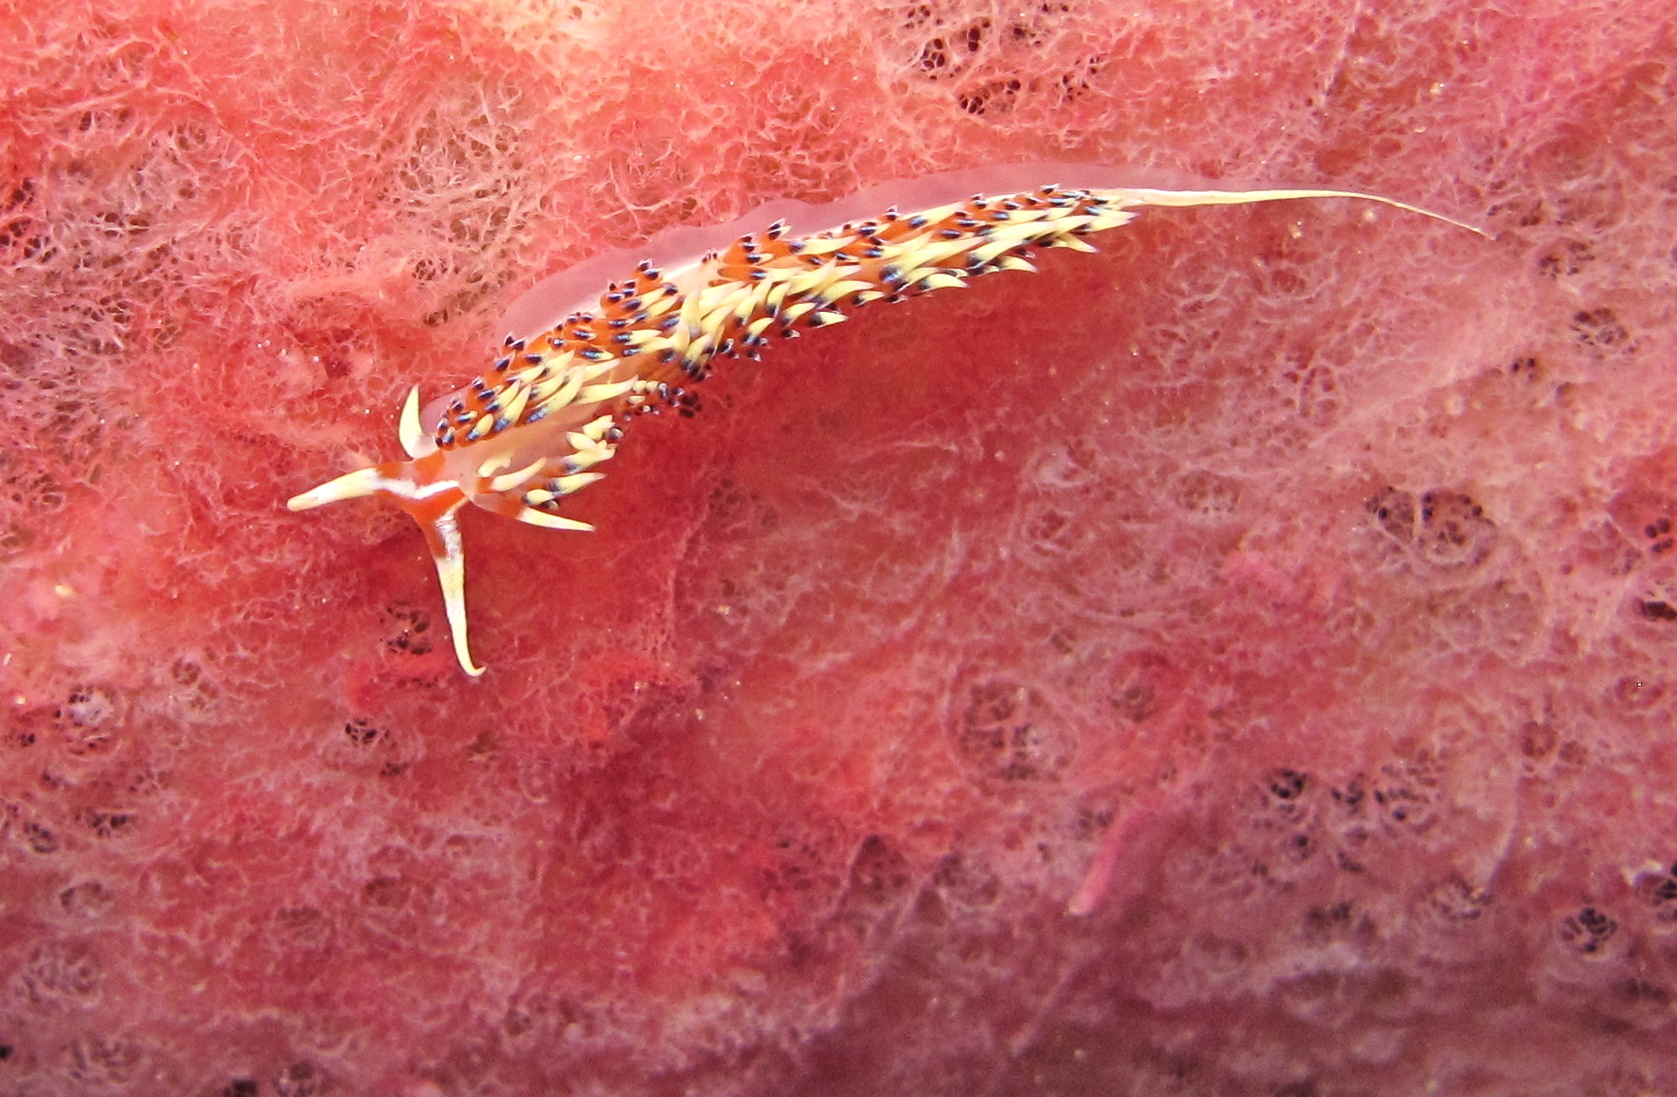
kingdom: Animalia
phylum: Mollusca
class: Gastropoda
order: Nudibranchia
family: Facelinidae
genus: Caloria
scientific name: Caloria indica
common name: Sea slug
